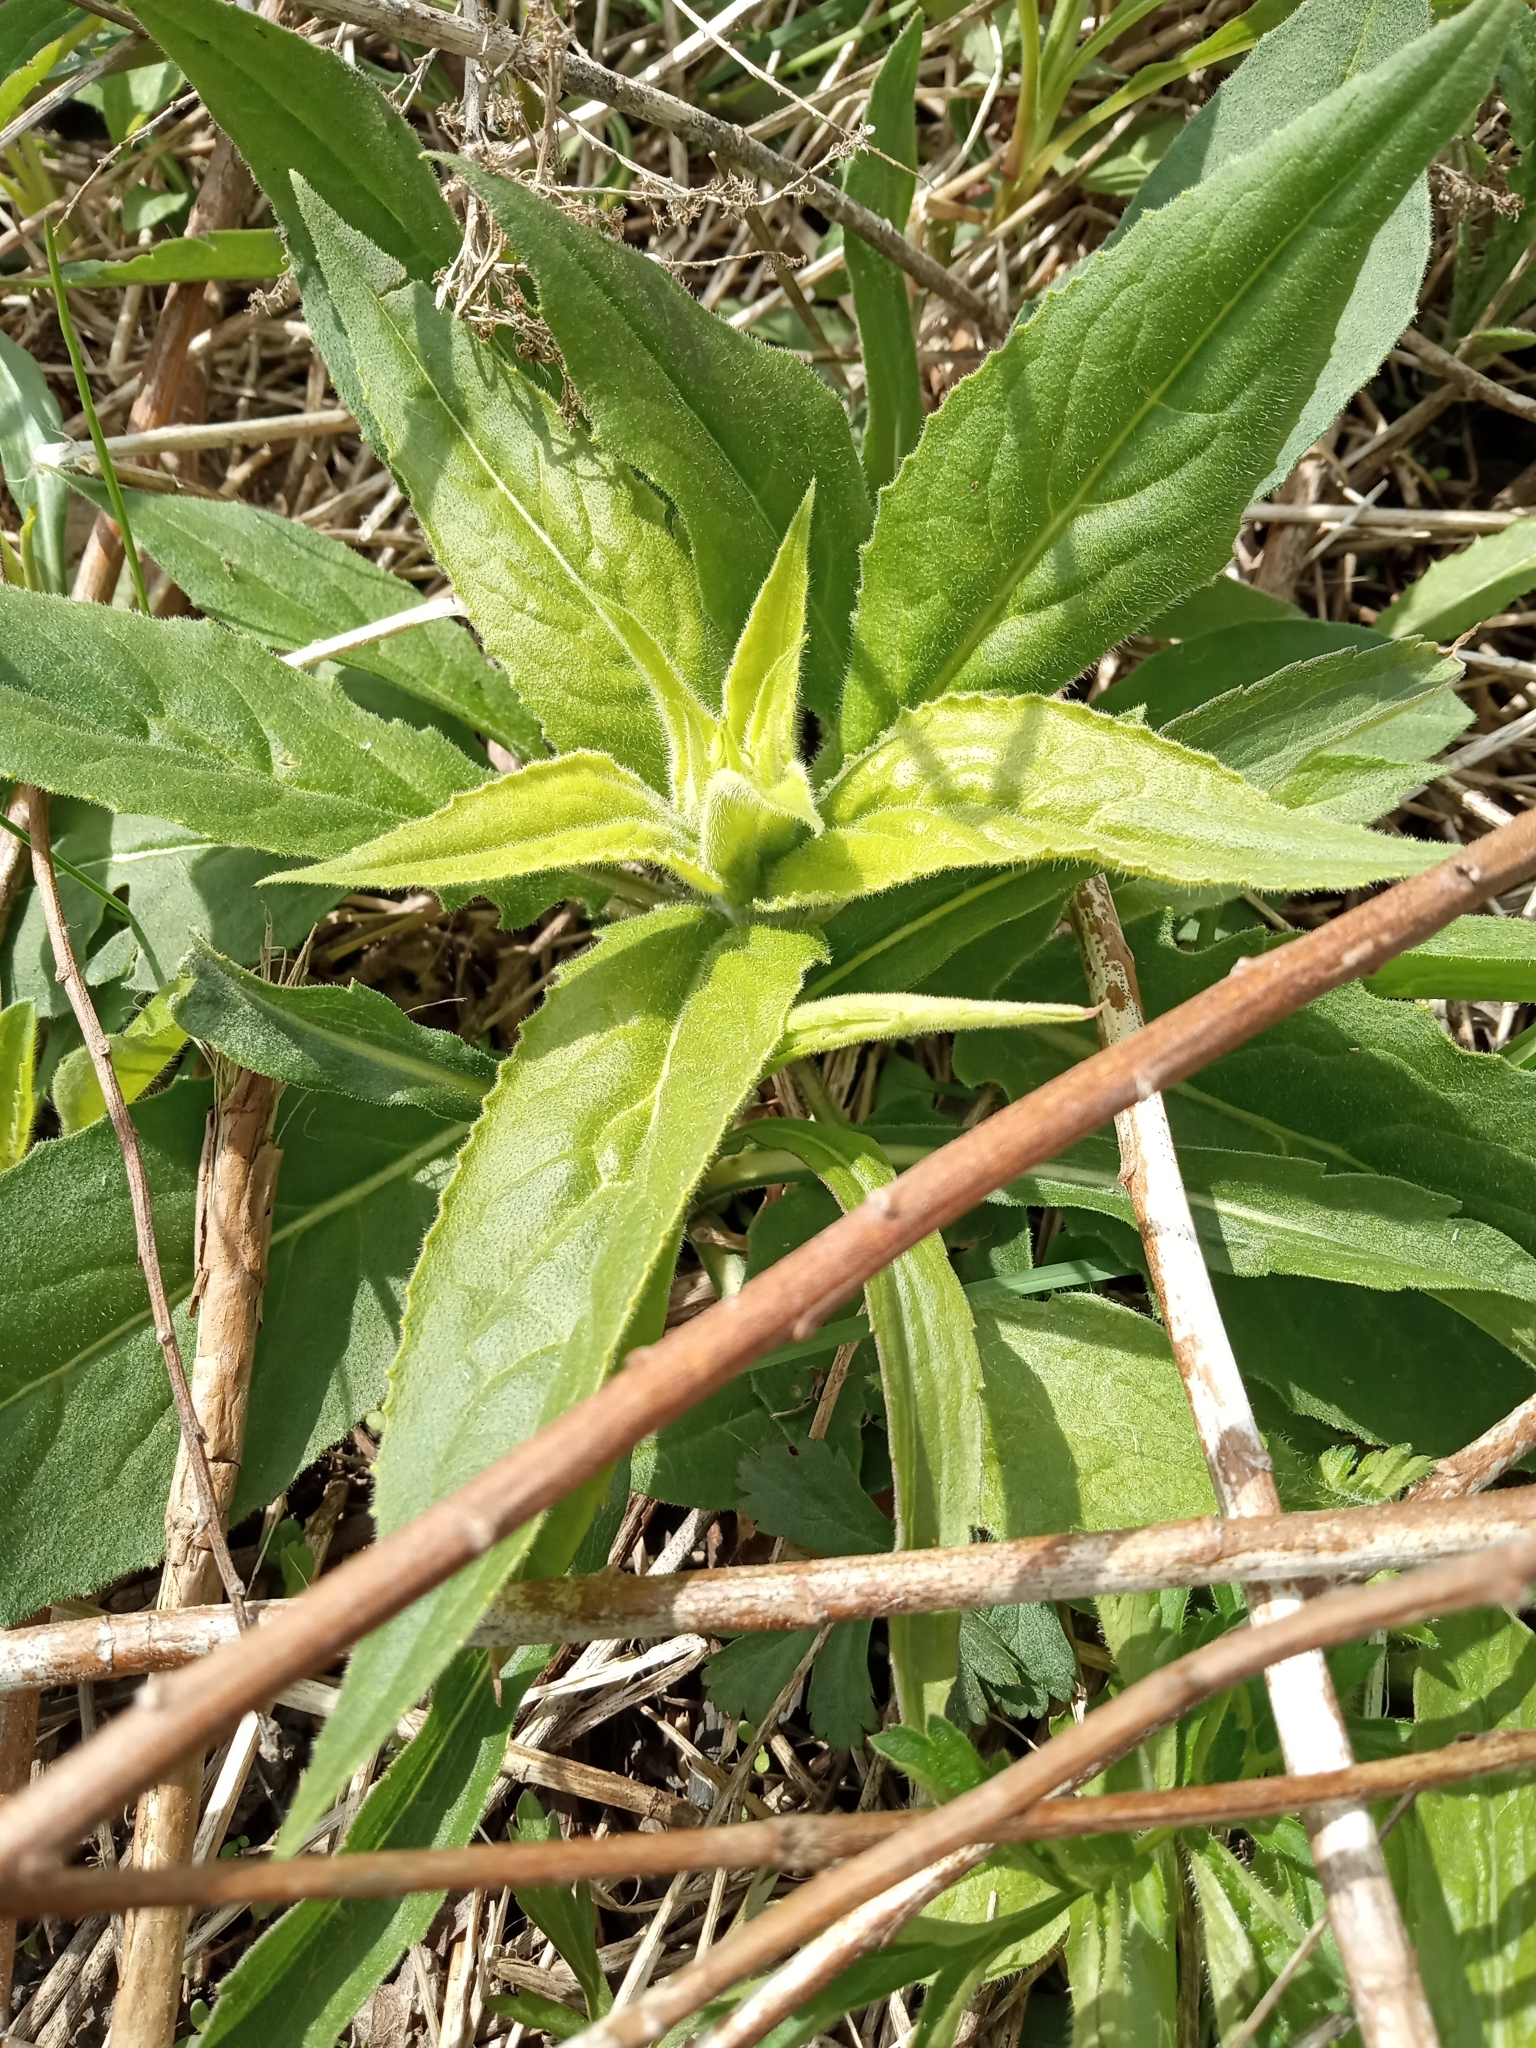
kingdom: Plantae
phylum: Tracheophyta
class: Magnoliopsida
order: Brassicales
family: Brassicaceae
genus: Hesperis
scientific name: Hesperis matronalis
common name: Dame's-violet
